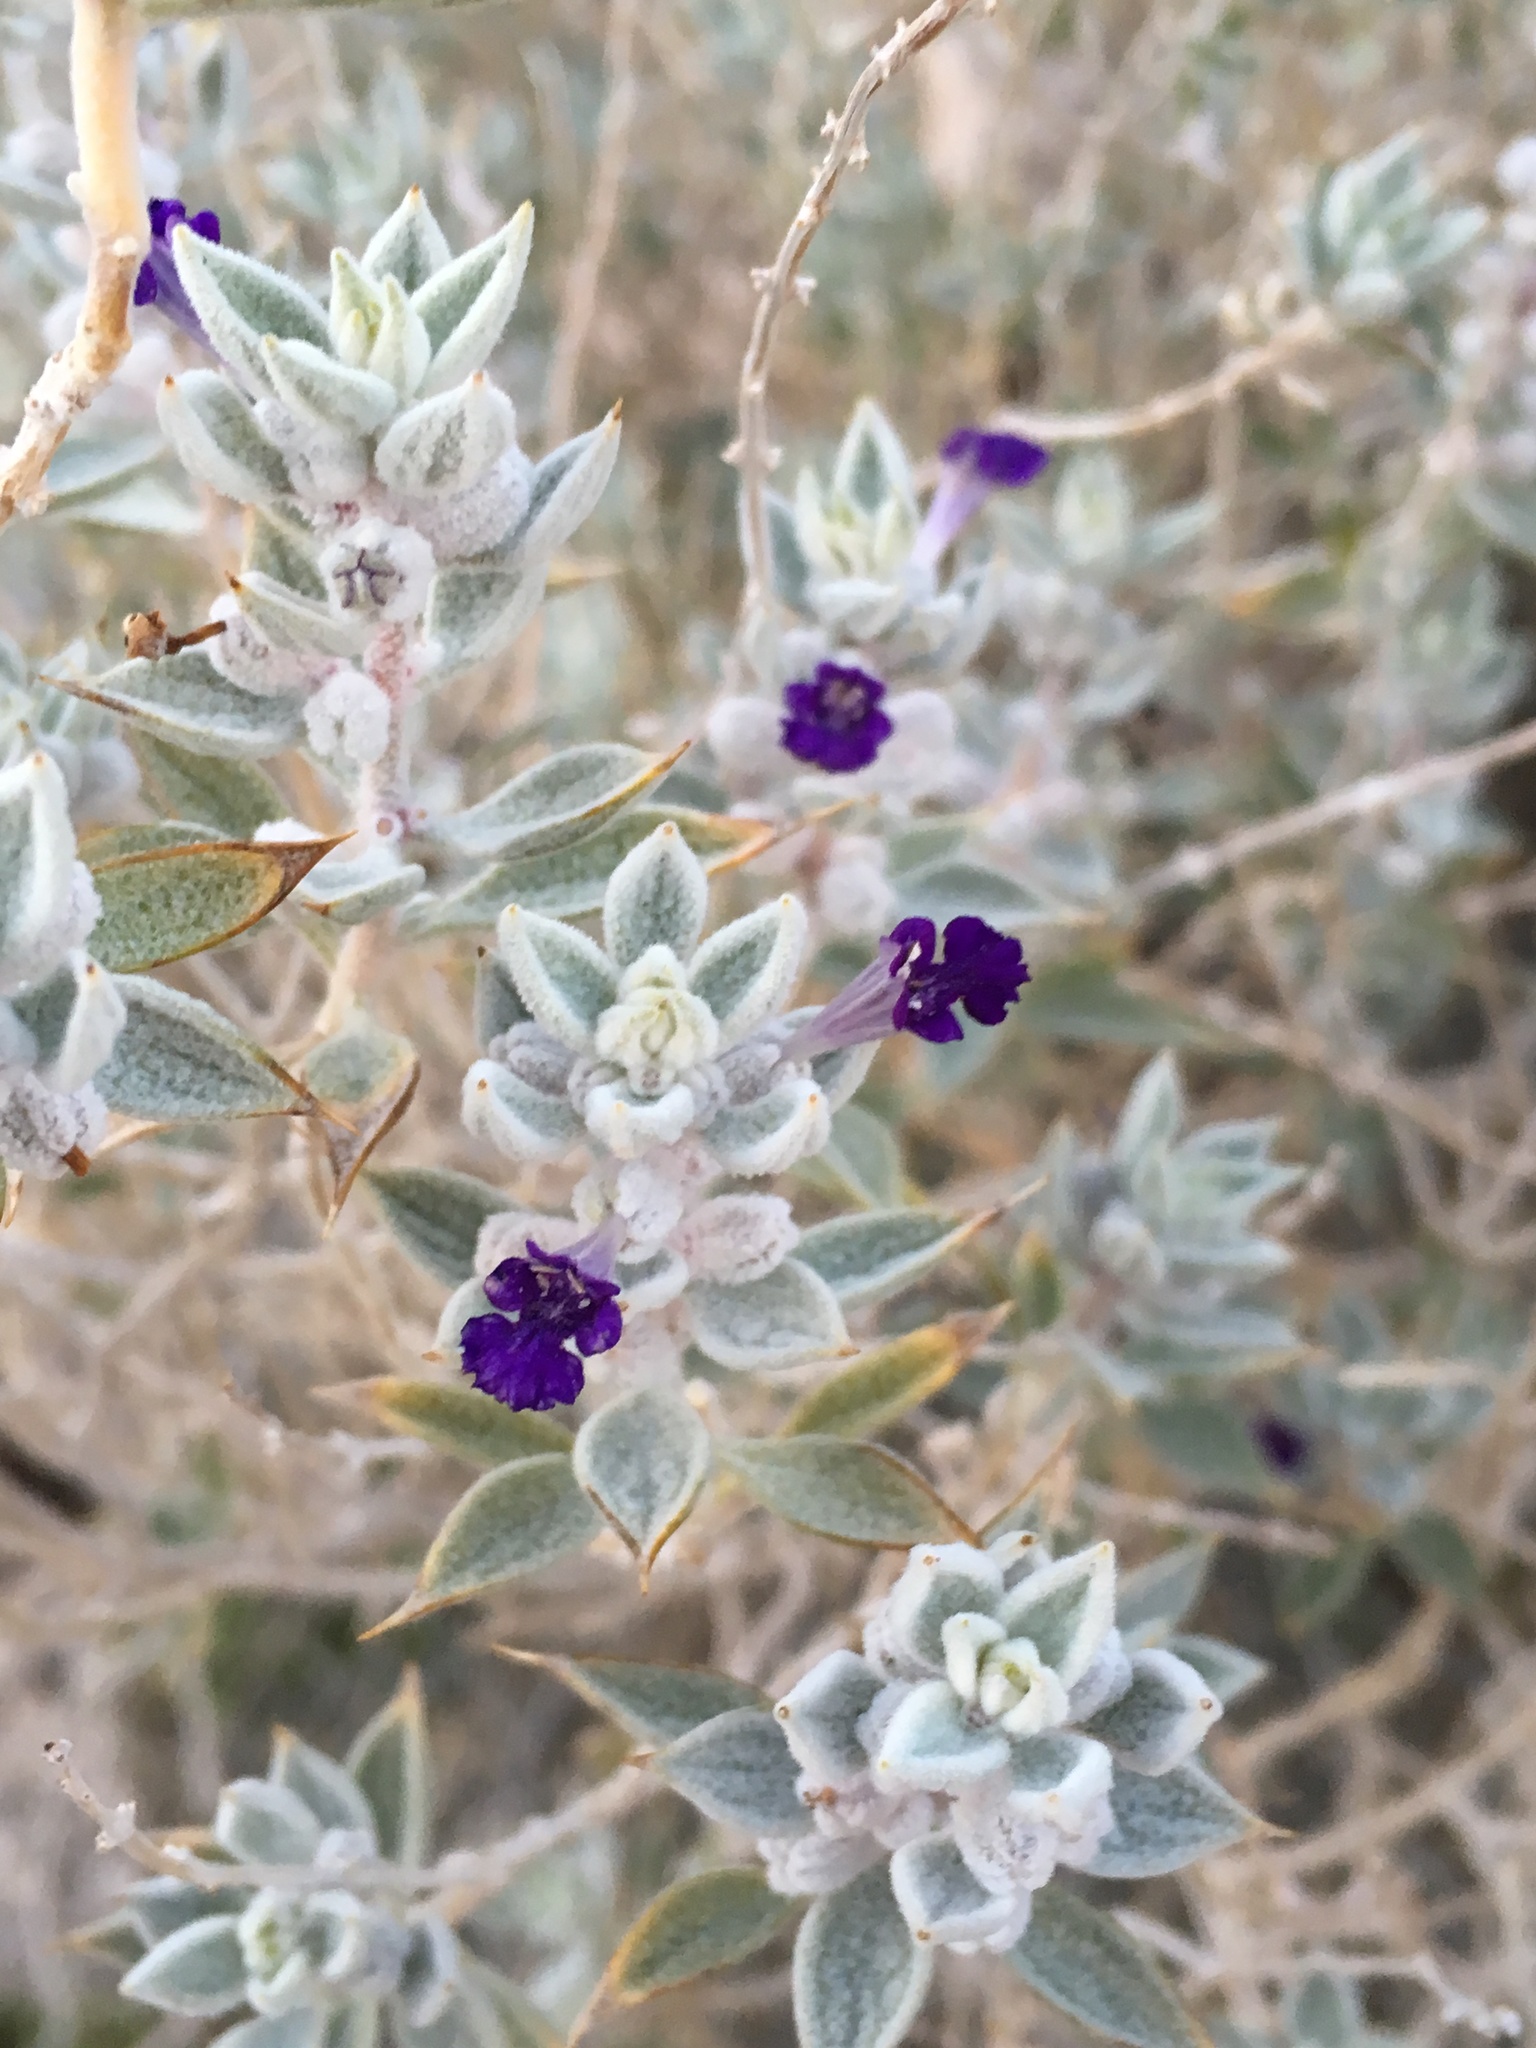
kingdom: Plantae
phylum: Tracheophyta
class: Magnoliopsida
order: Lamiales
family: Lamiaceae
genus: Salvia
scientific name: Salvia funerea
